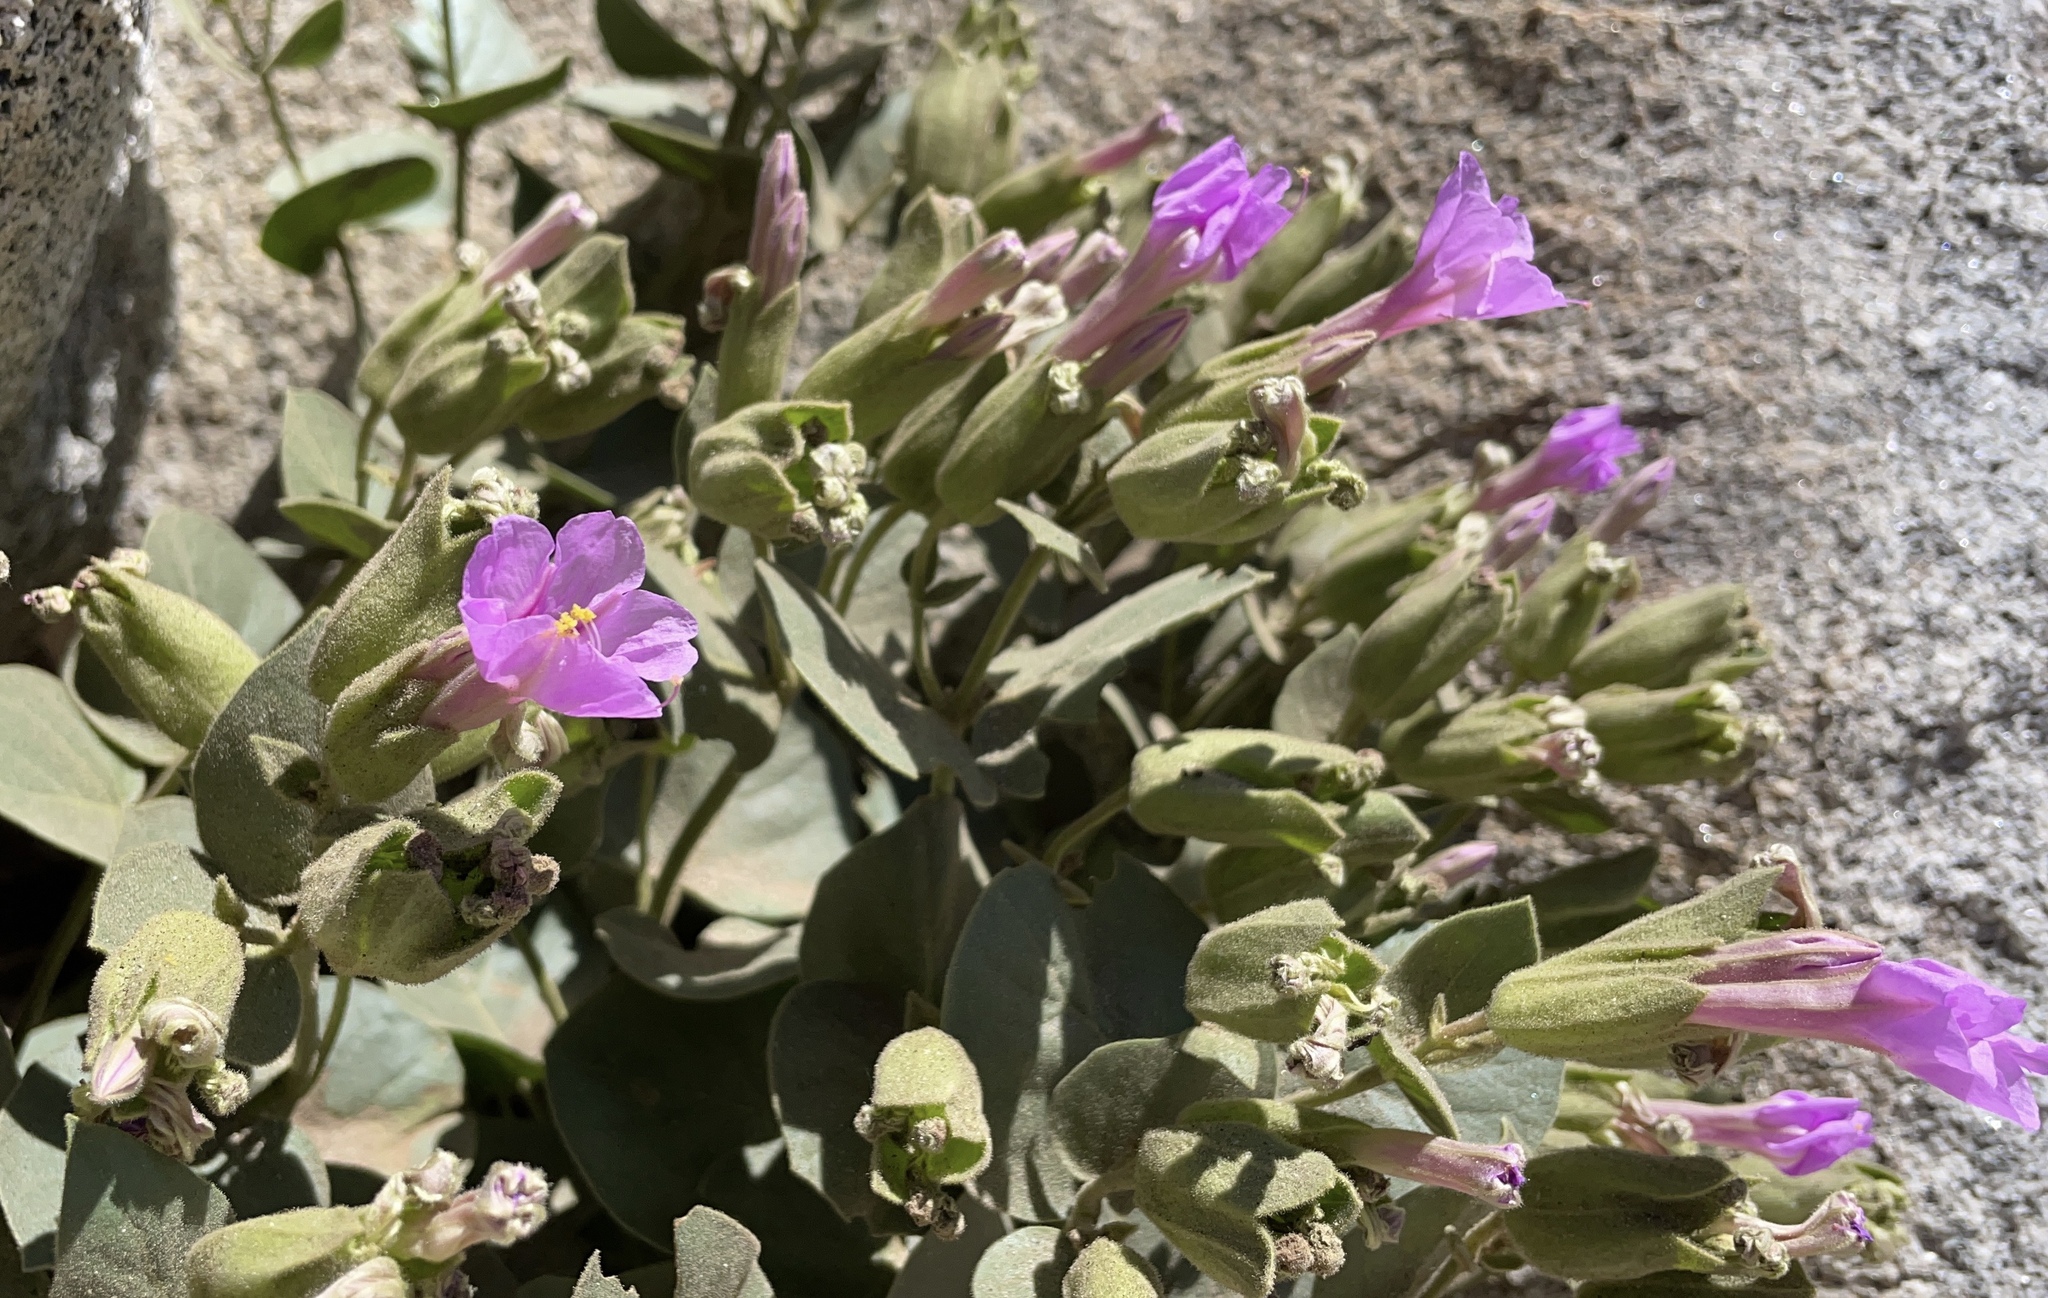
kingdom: Plantae
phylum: Tracheophyta
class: Magnoliopsida
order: Caryophyllales
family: Nyctaginaceae
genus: Mirabilis
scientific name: Mirabilis multiflora
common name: Froebel's four-o'clock
